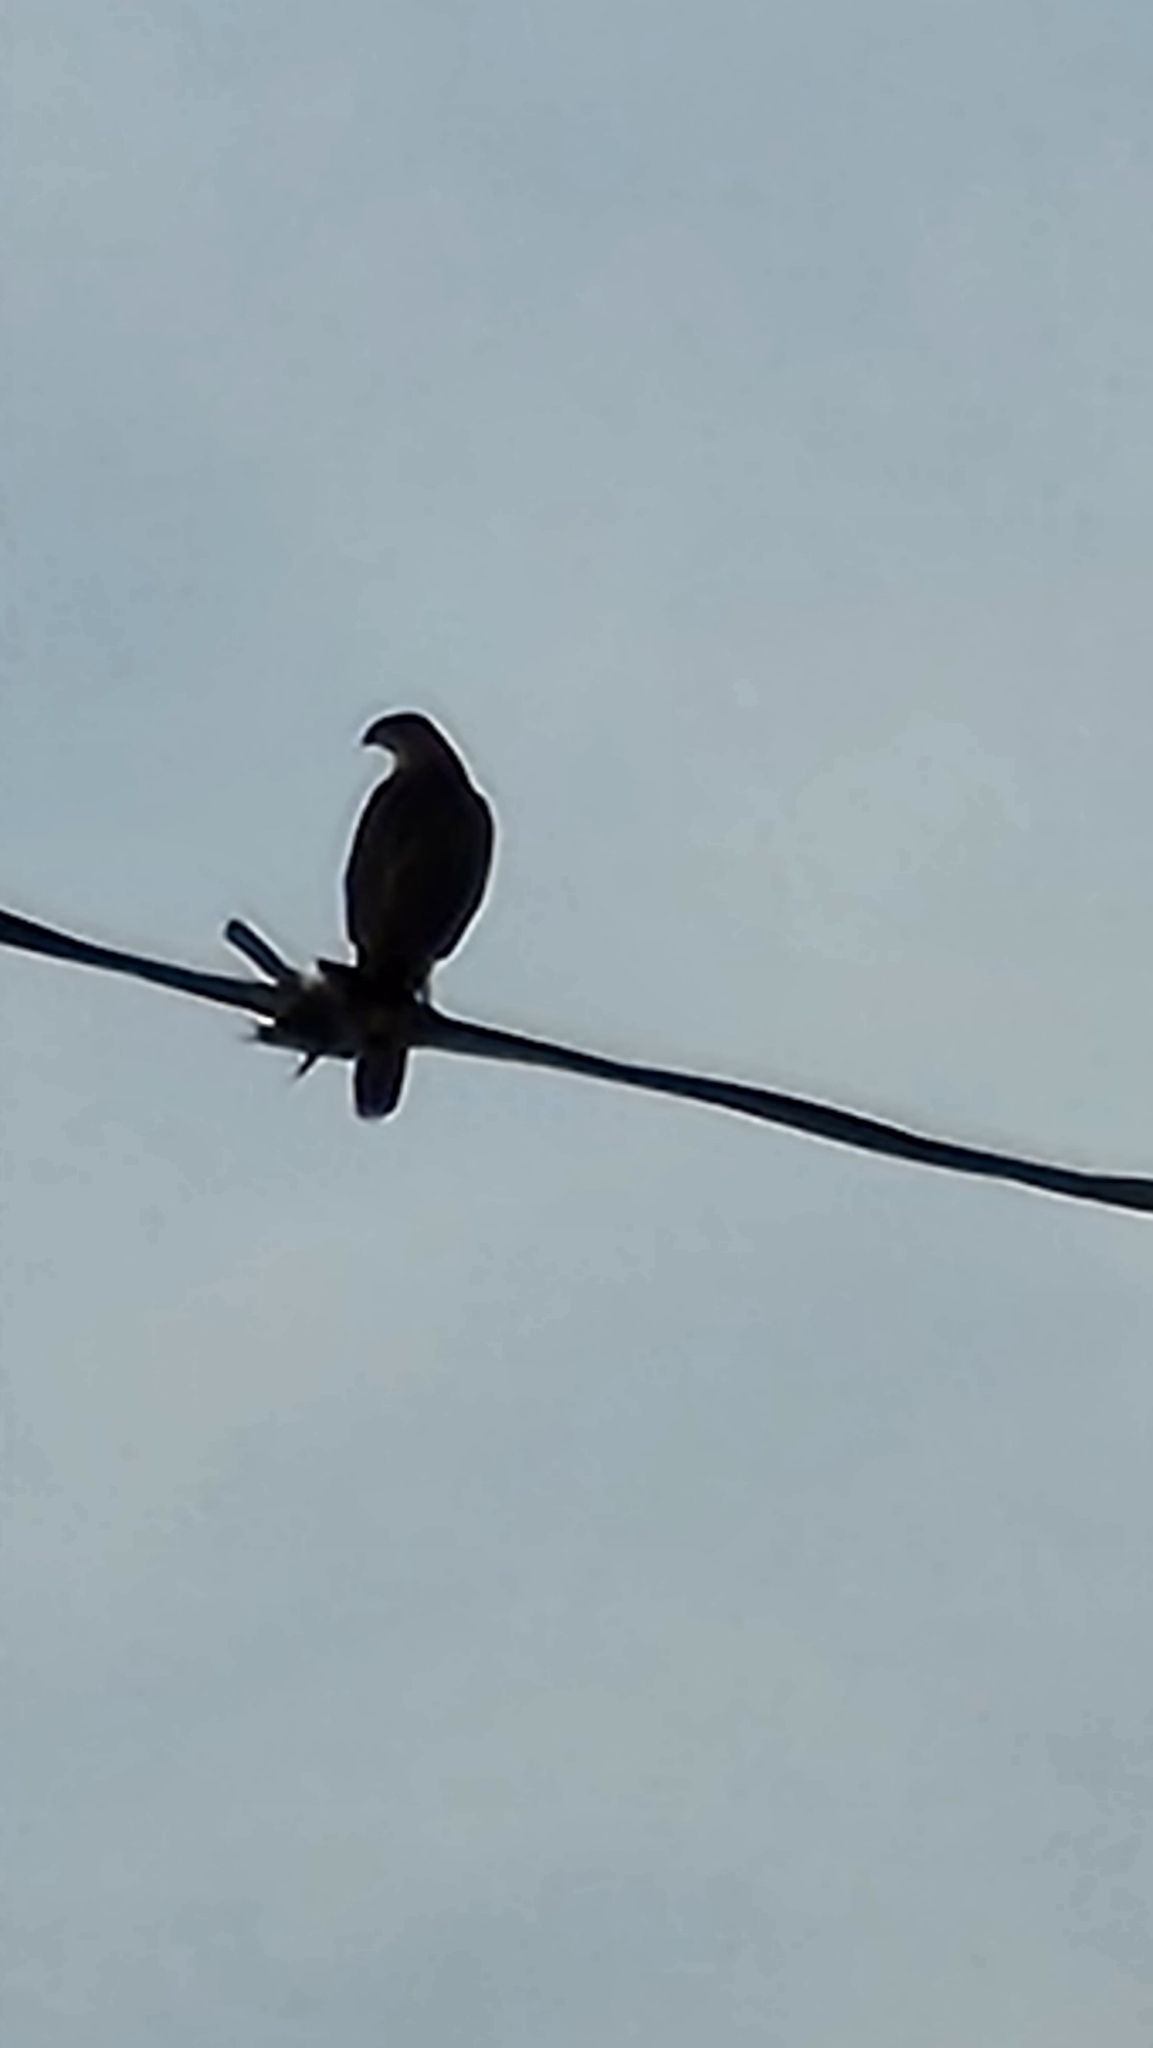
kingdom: Animalia
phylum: Chordata
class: Aves
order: Accipitriformes
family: Accipitridae
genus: Accipiter
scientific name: Accipiter cooperii
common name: Cooper's hawk
